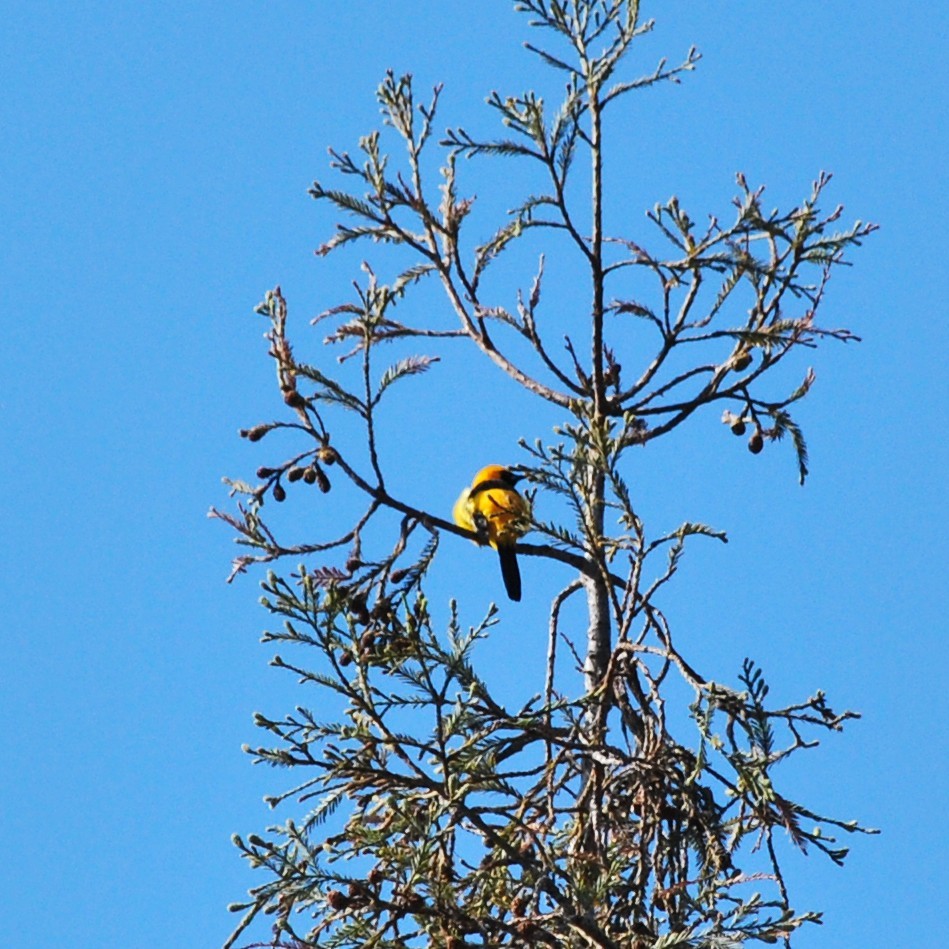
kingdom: Animalia
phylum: Chordata
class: Aves
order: Passeriformes
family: Icteridae
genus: Icterus
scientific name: Icterus cucullatus
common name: Hooded oriole
